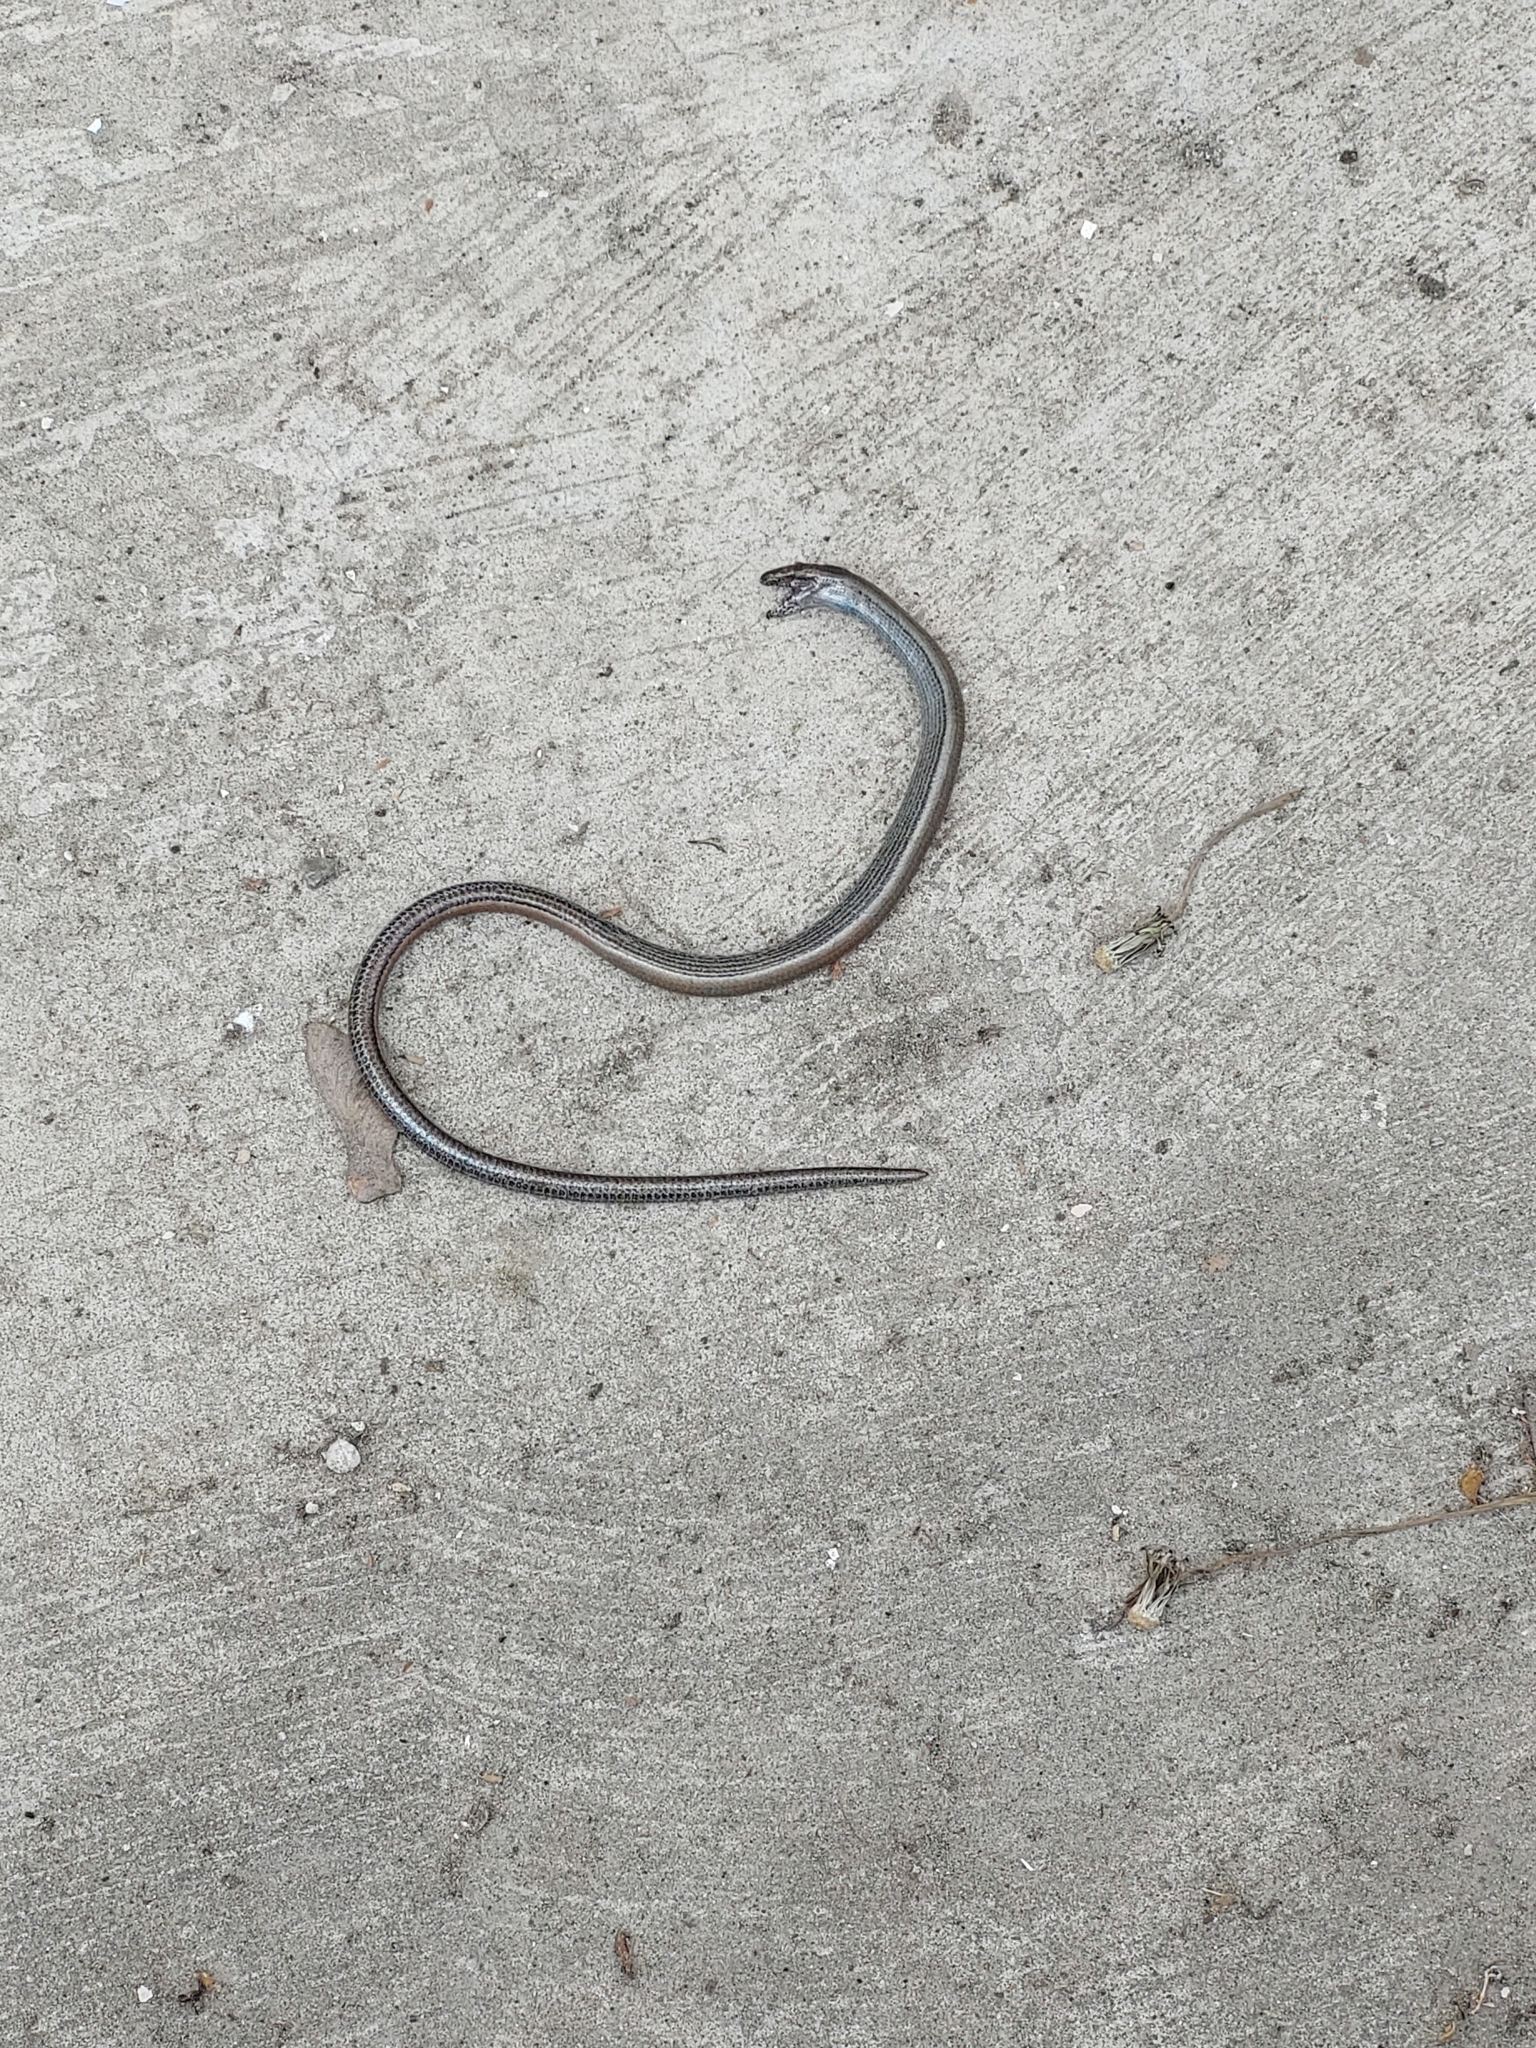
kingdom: Animalia
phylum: Chordata
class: Squamata
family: Anguidae
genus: Anguis
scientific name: Anguis fragilis
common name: Slow worm
